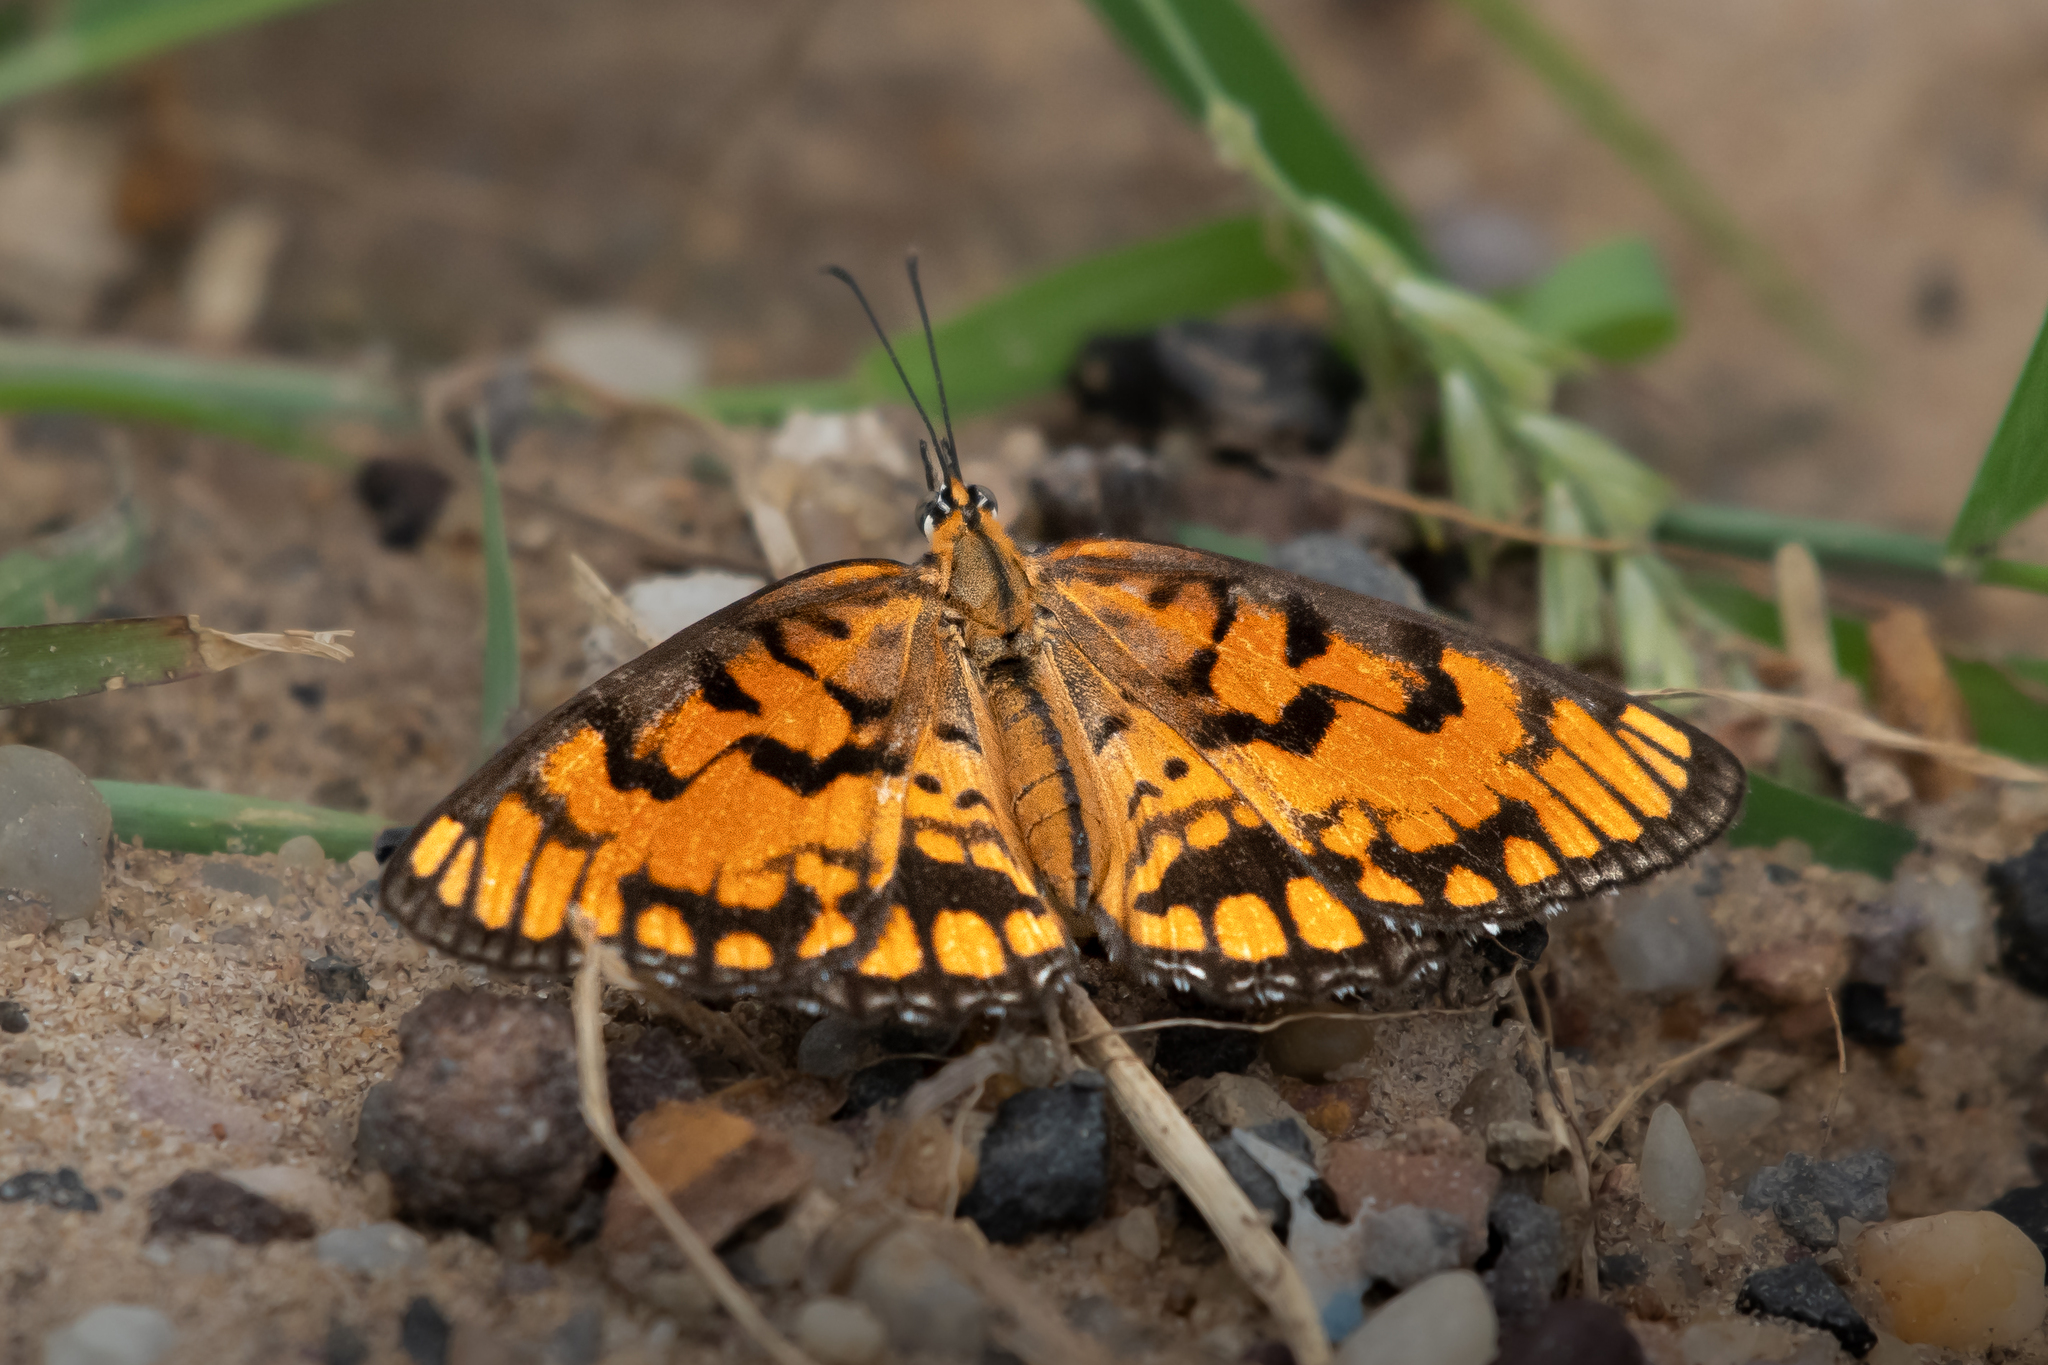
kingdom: Animalia
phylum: Arthropoda
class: Insecta
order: Lepidoptera
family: Nymphalidae
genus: Byblia
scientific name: Byblia ilithyia
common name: Spotted joker
